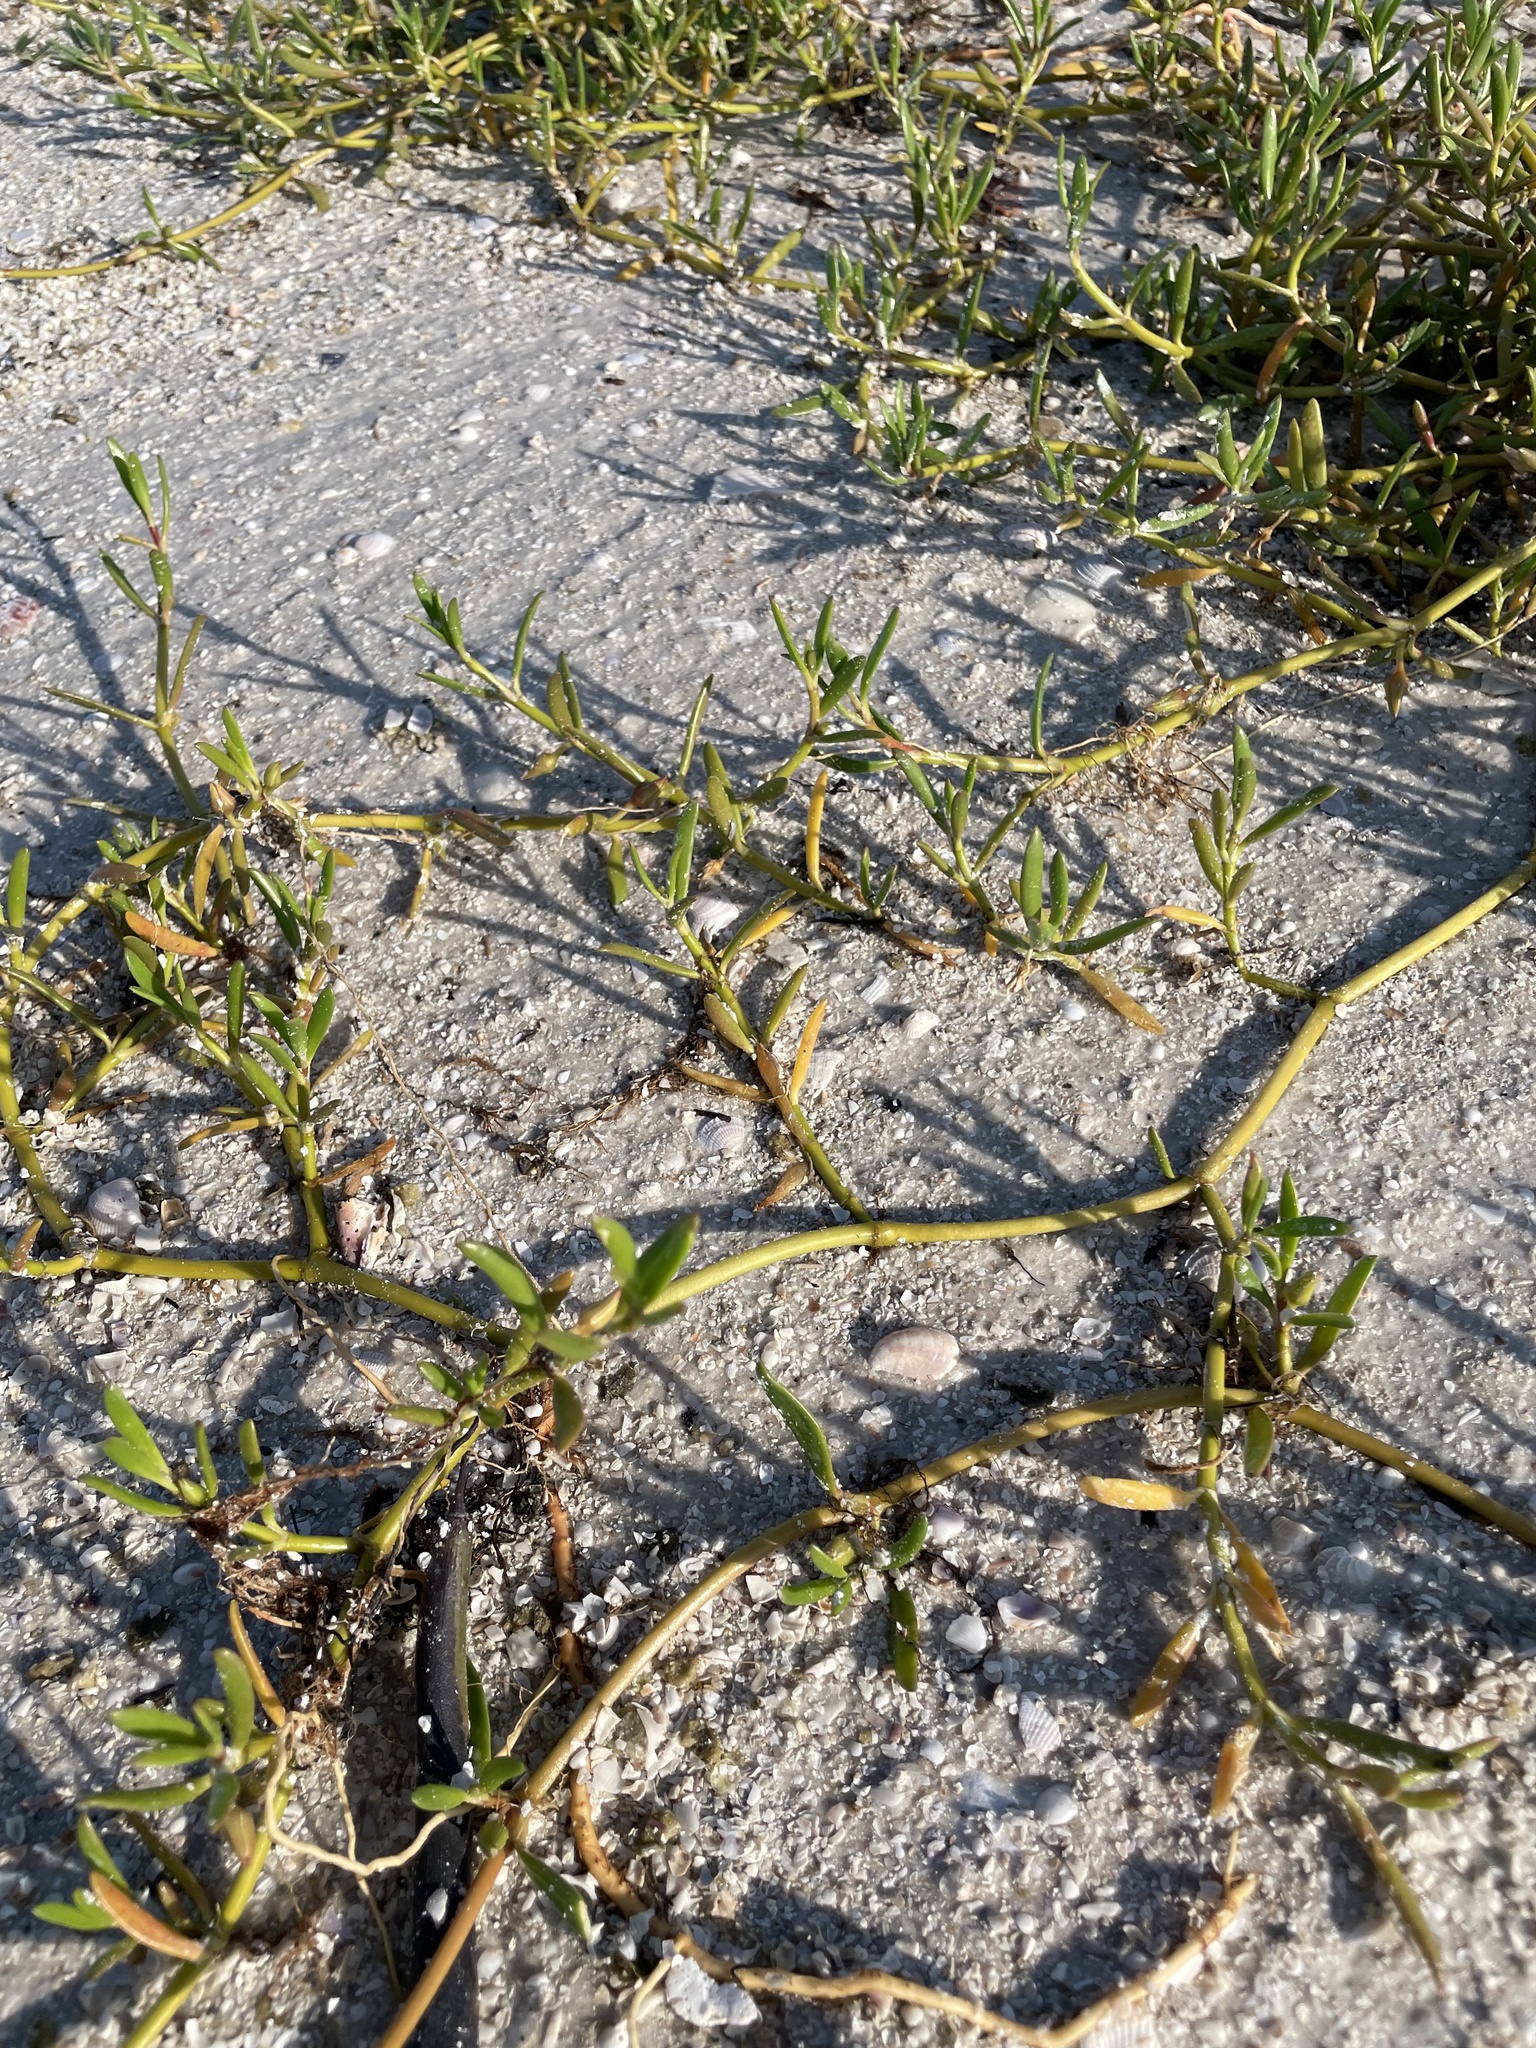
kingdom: Plantae
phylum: Tracheophyta
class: Magnoliopsida
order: Caryophyllales
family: Aizoaceae
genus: Sesuvium
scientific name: Sesuvium portulacastrum
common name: Sea-purslane
